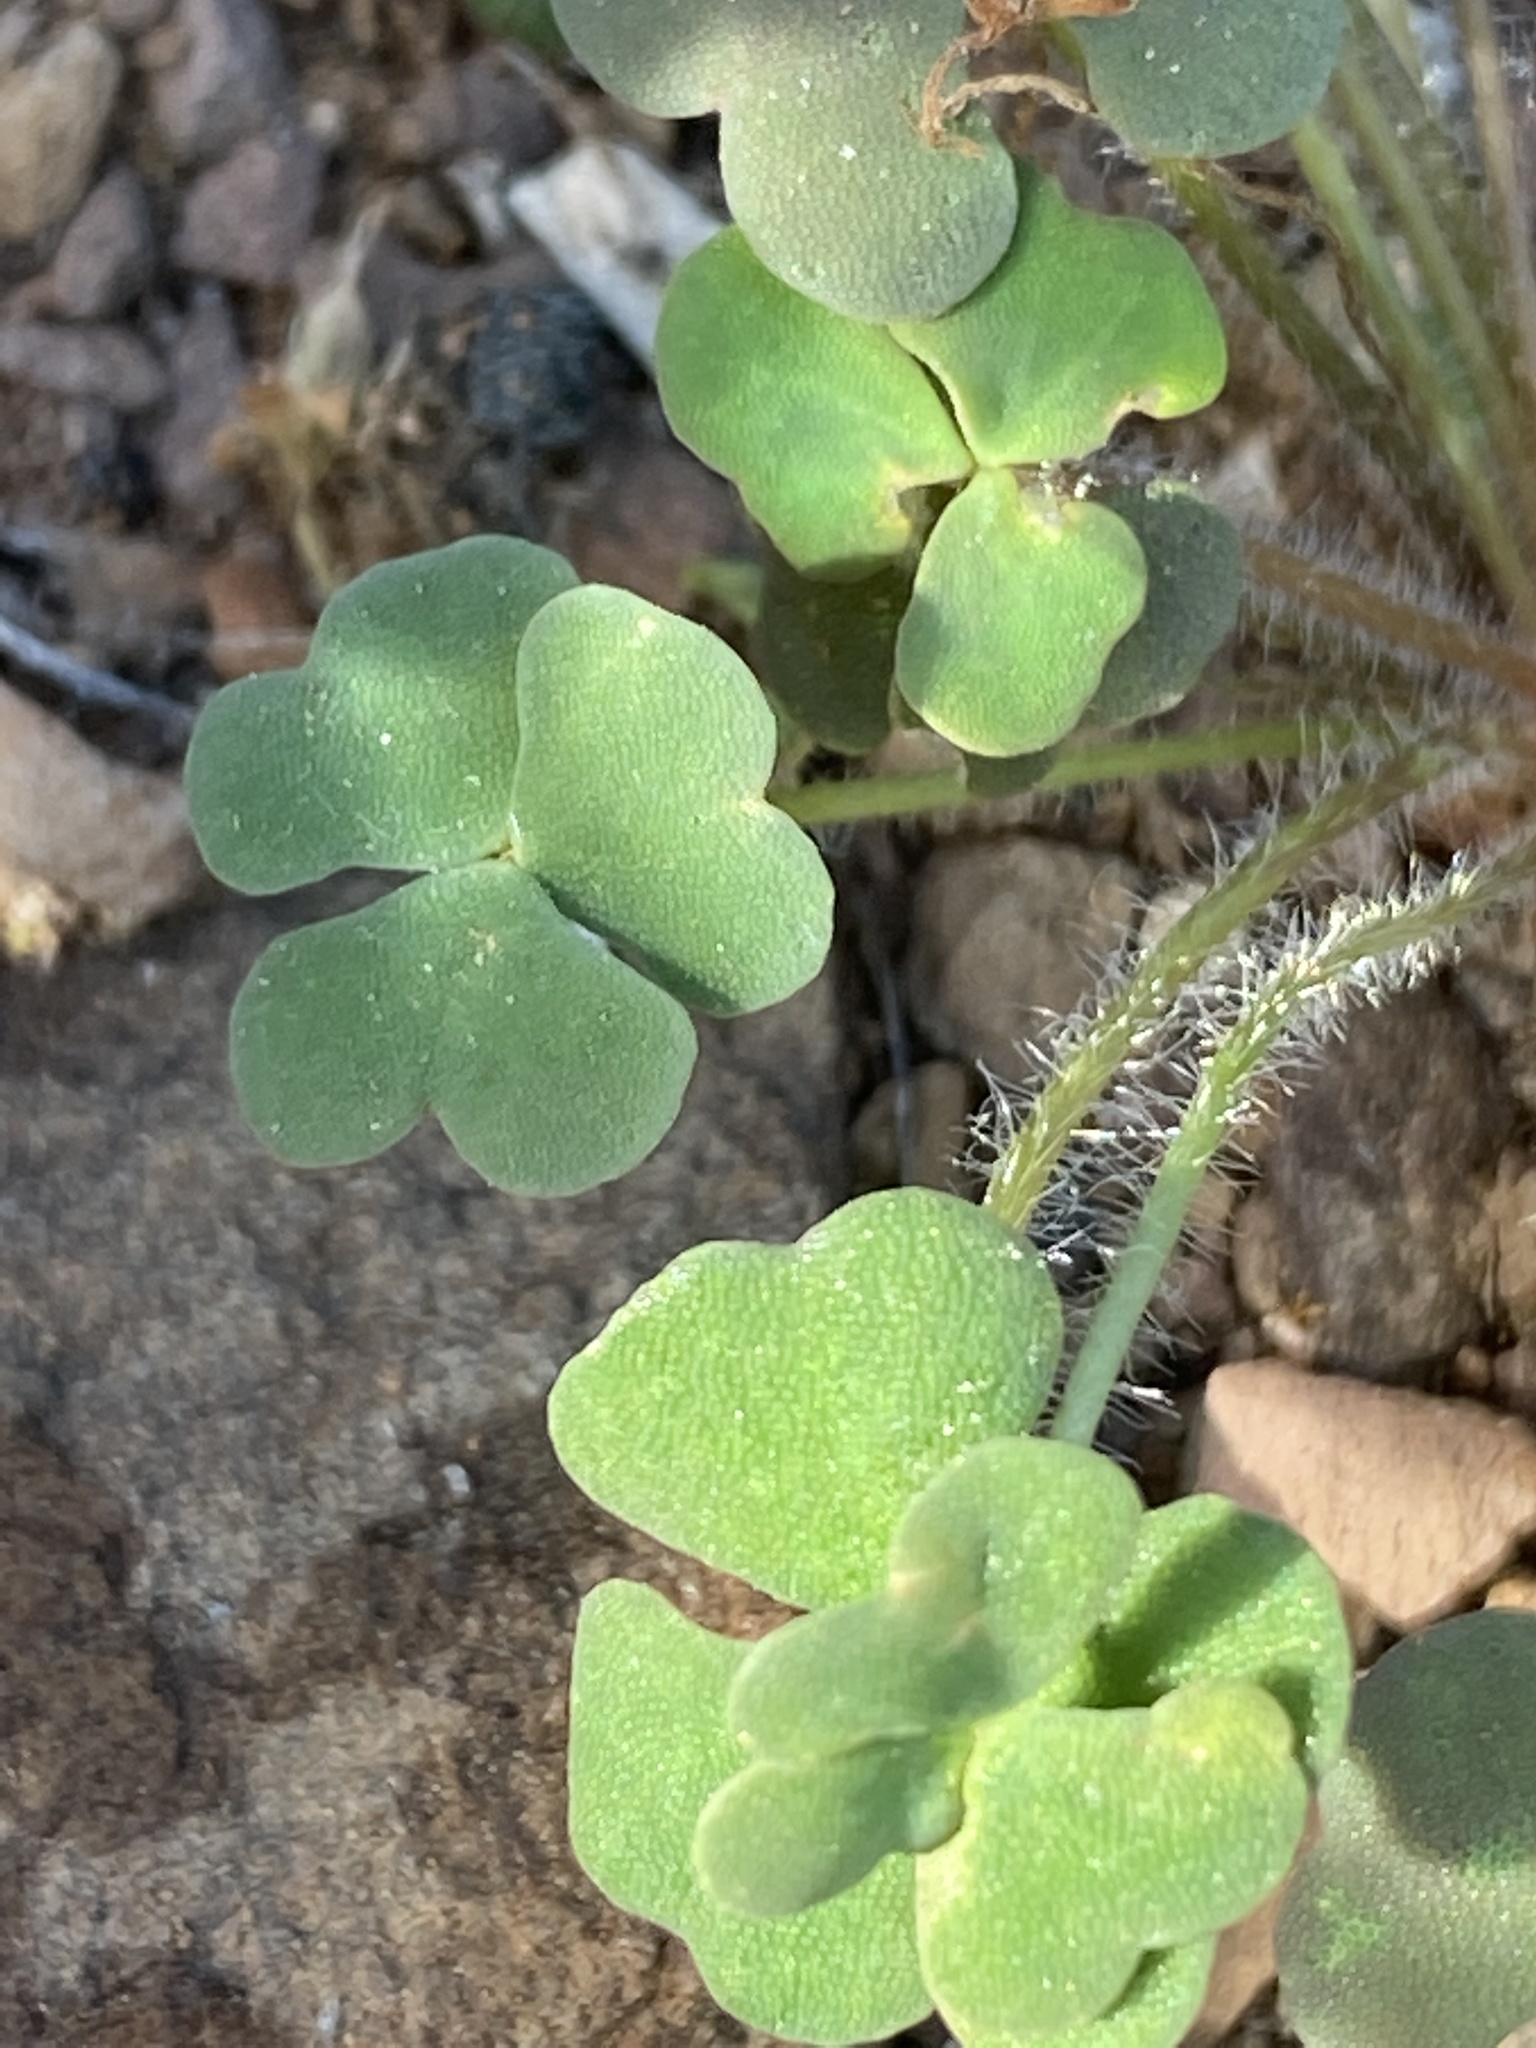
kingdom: Plantae
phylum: Tracheophyta
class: Magnoliopsida
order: Oxalidales
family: Oxalidaceae
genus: Oxalis
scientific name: Oxalis punctata
